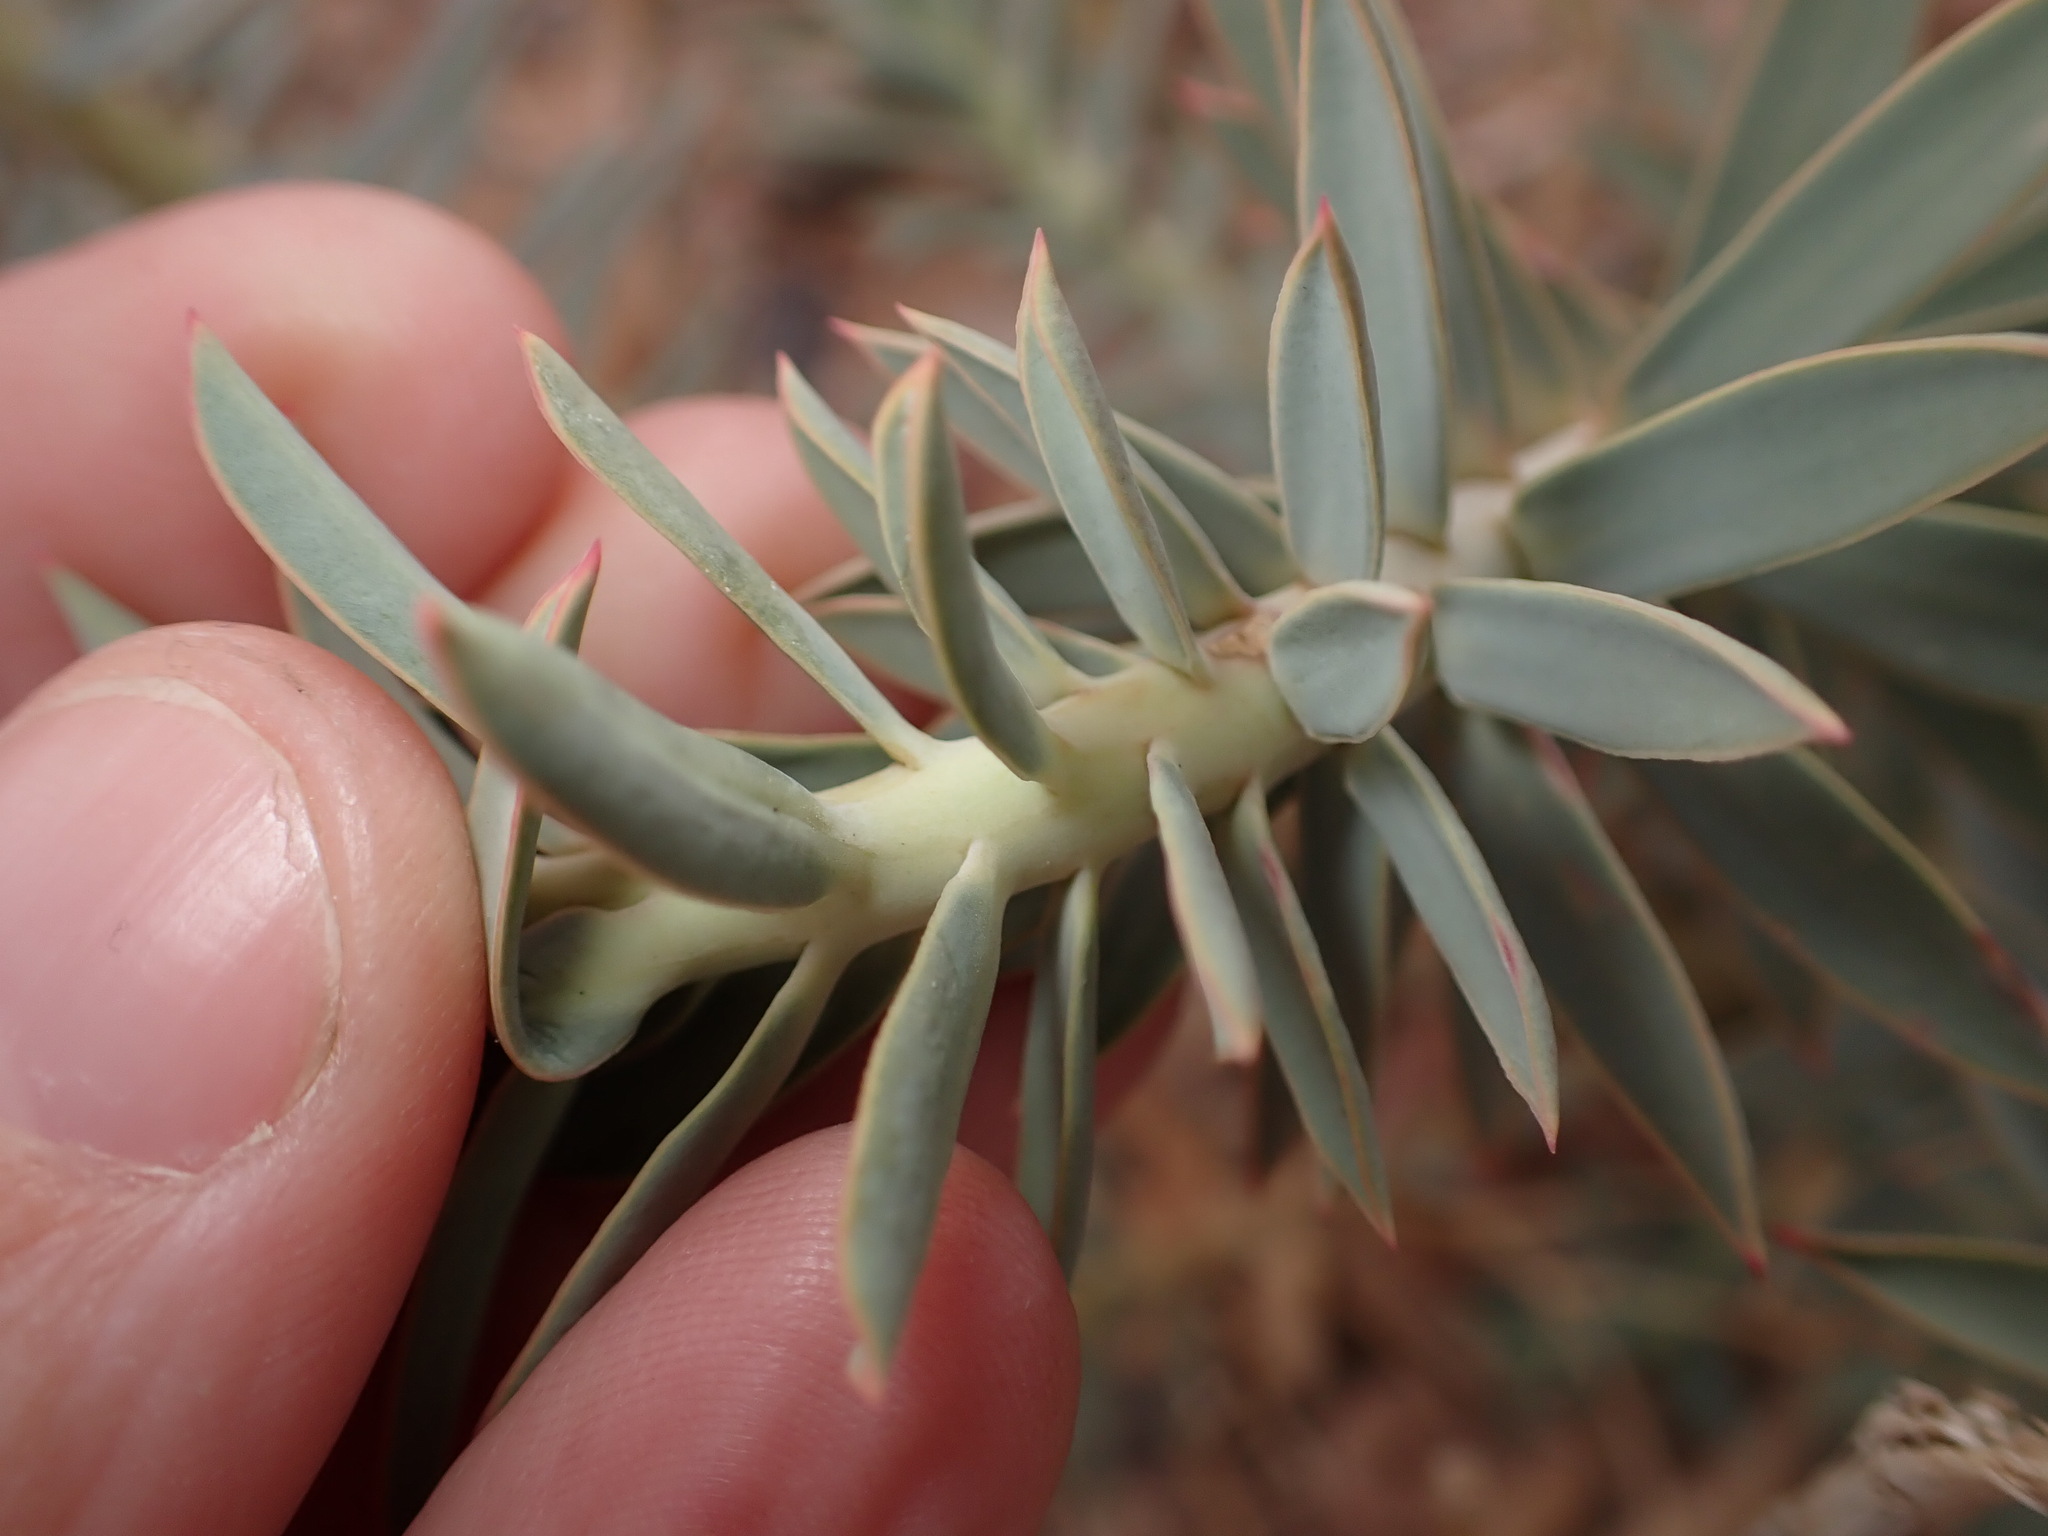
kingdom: Plantae
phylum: Tracheophyta
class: Magnoliopsida
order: Malpighiales
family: Euphorbiaceae
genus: Euphorbia
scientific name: Euphorbia rigida
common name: Upright myrtle spurge
